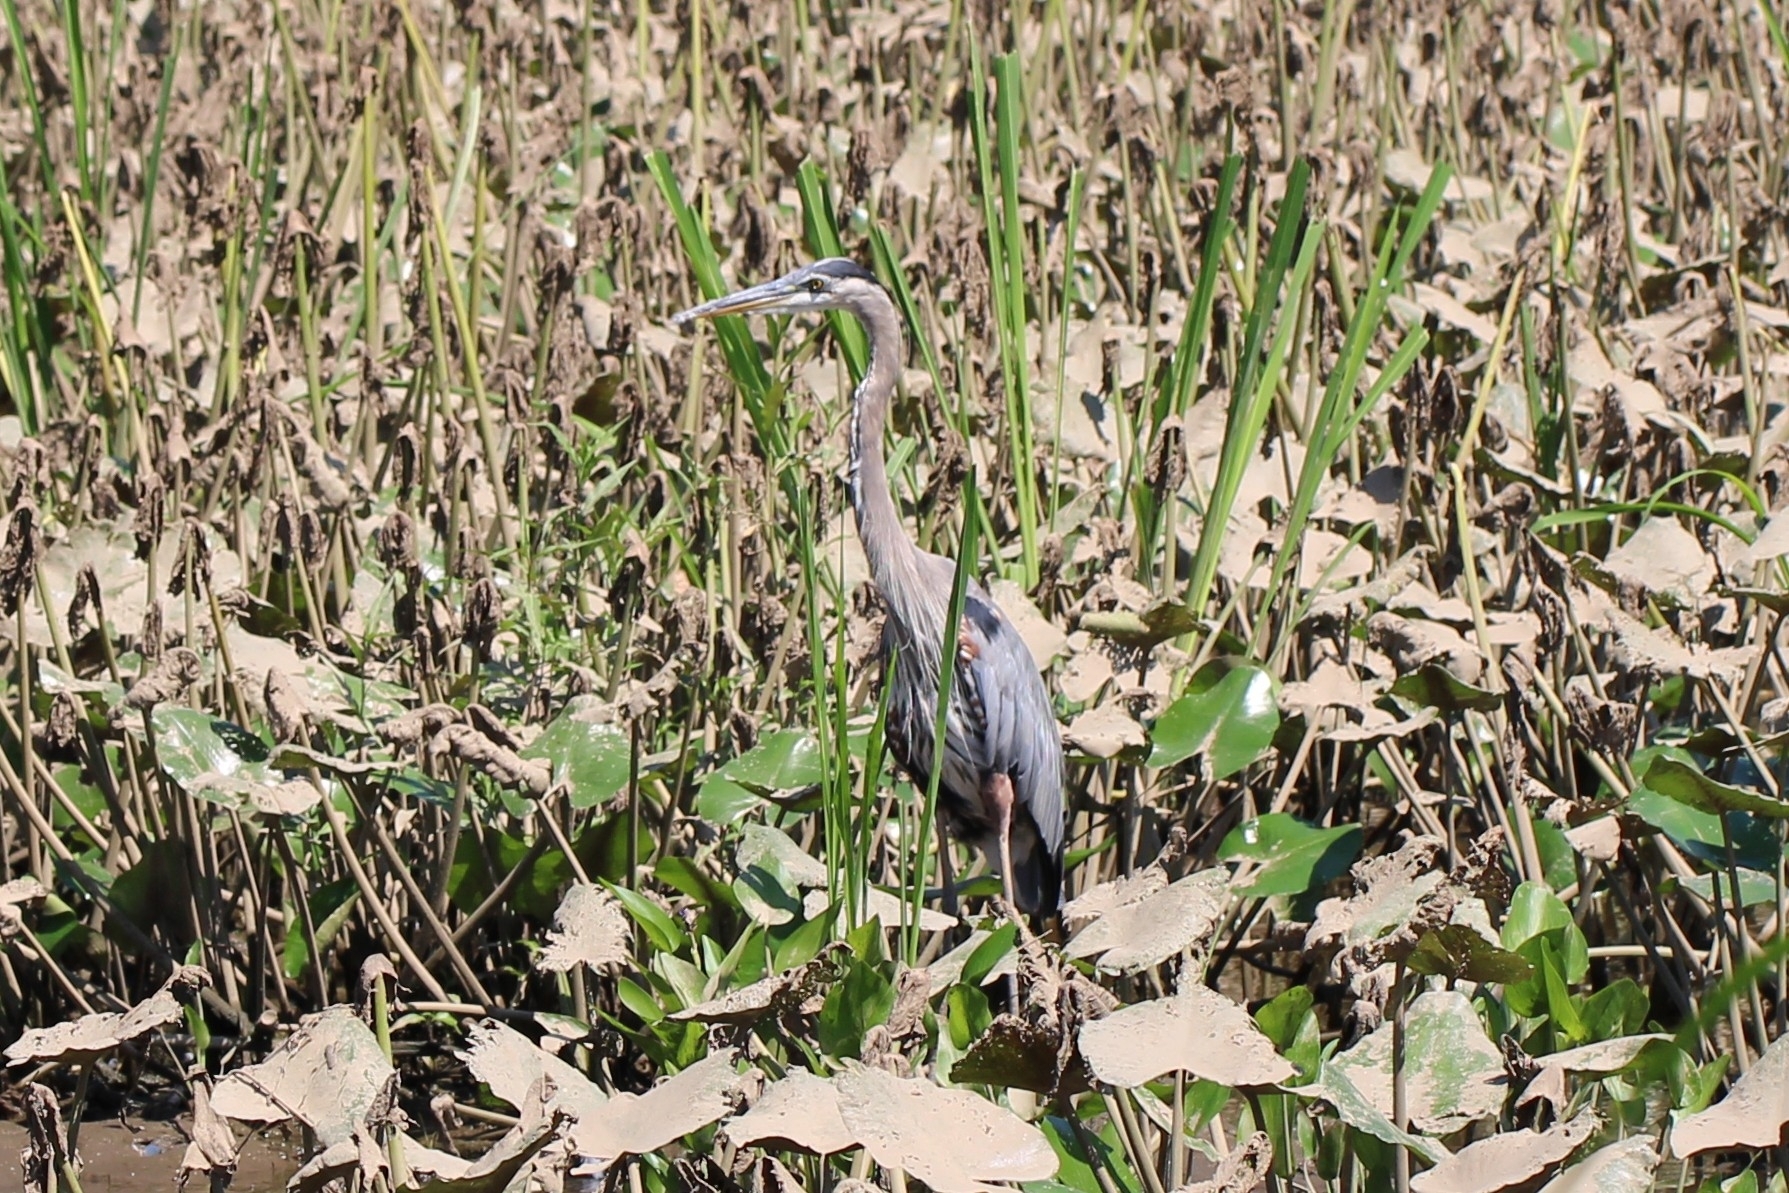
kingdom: Animalia
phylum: Chordata
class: Aves
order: Pelecaniformes
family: Ardeidae
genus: Ardea
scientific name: Ardea herodias
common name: Great blue heron
